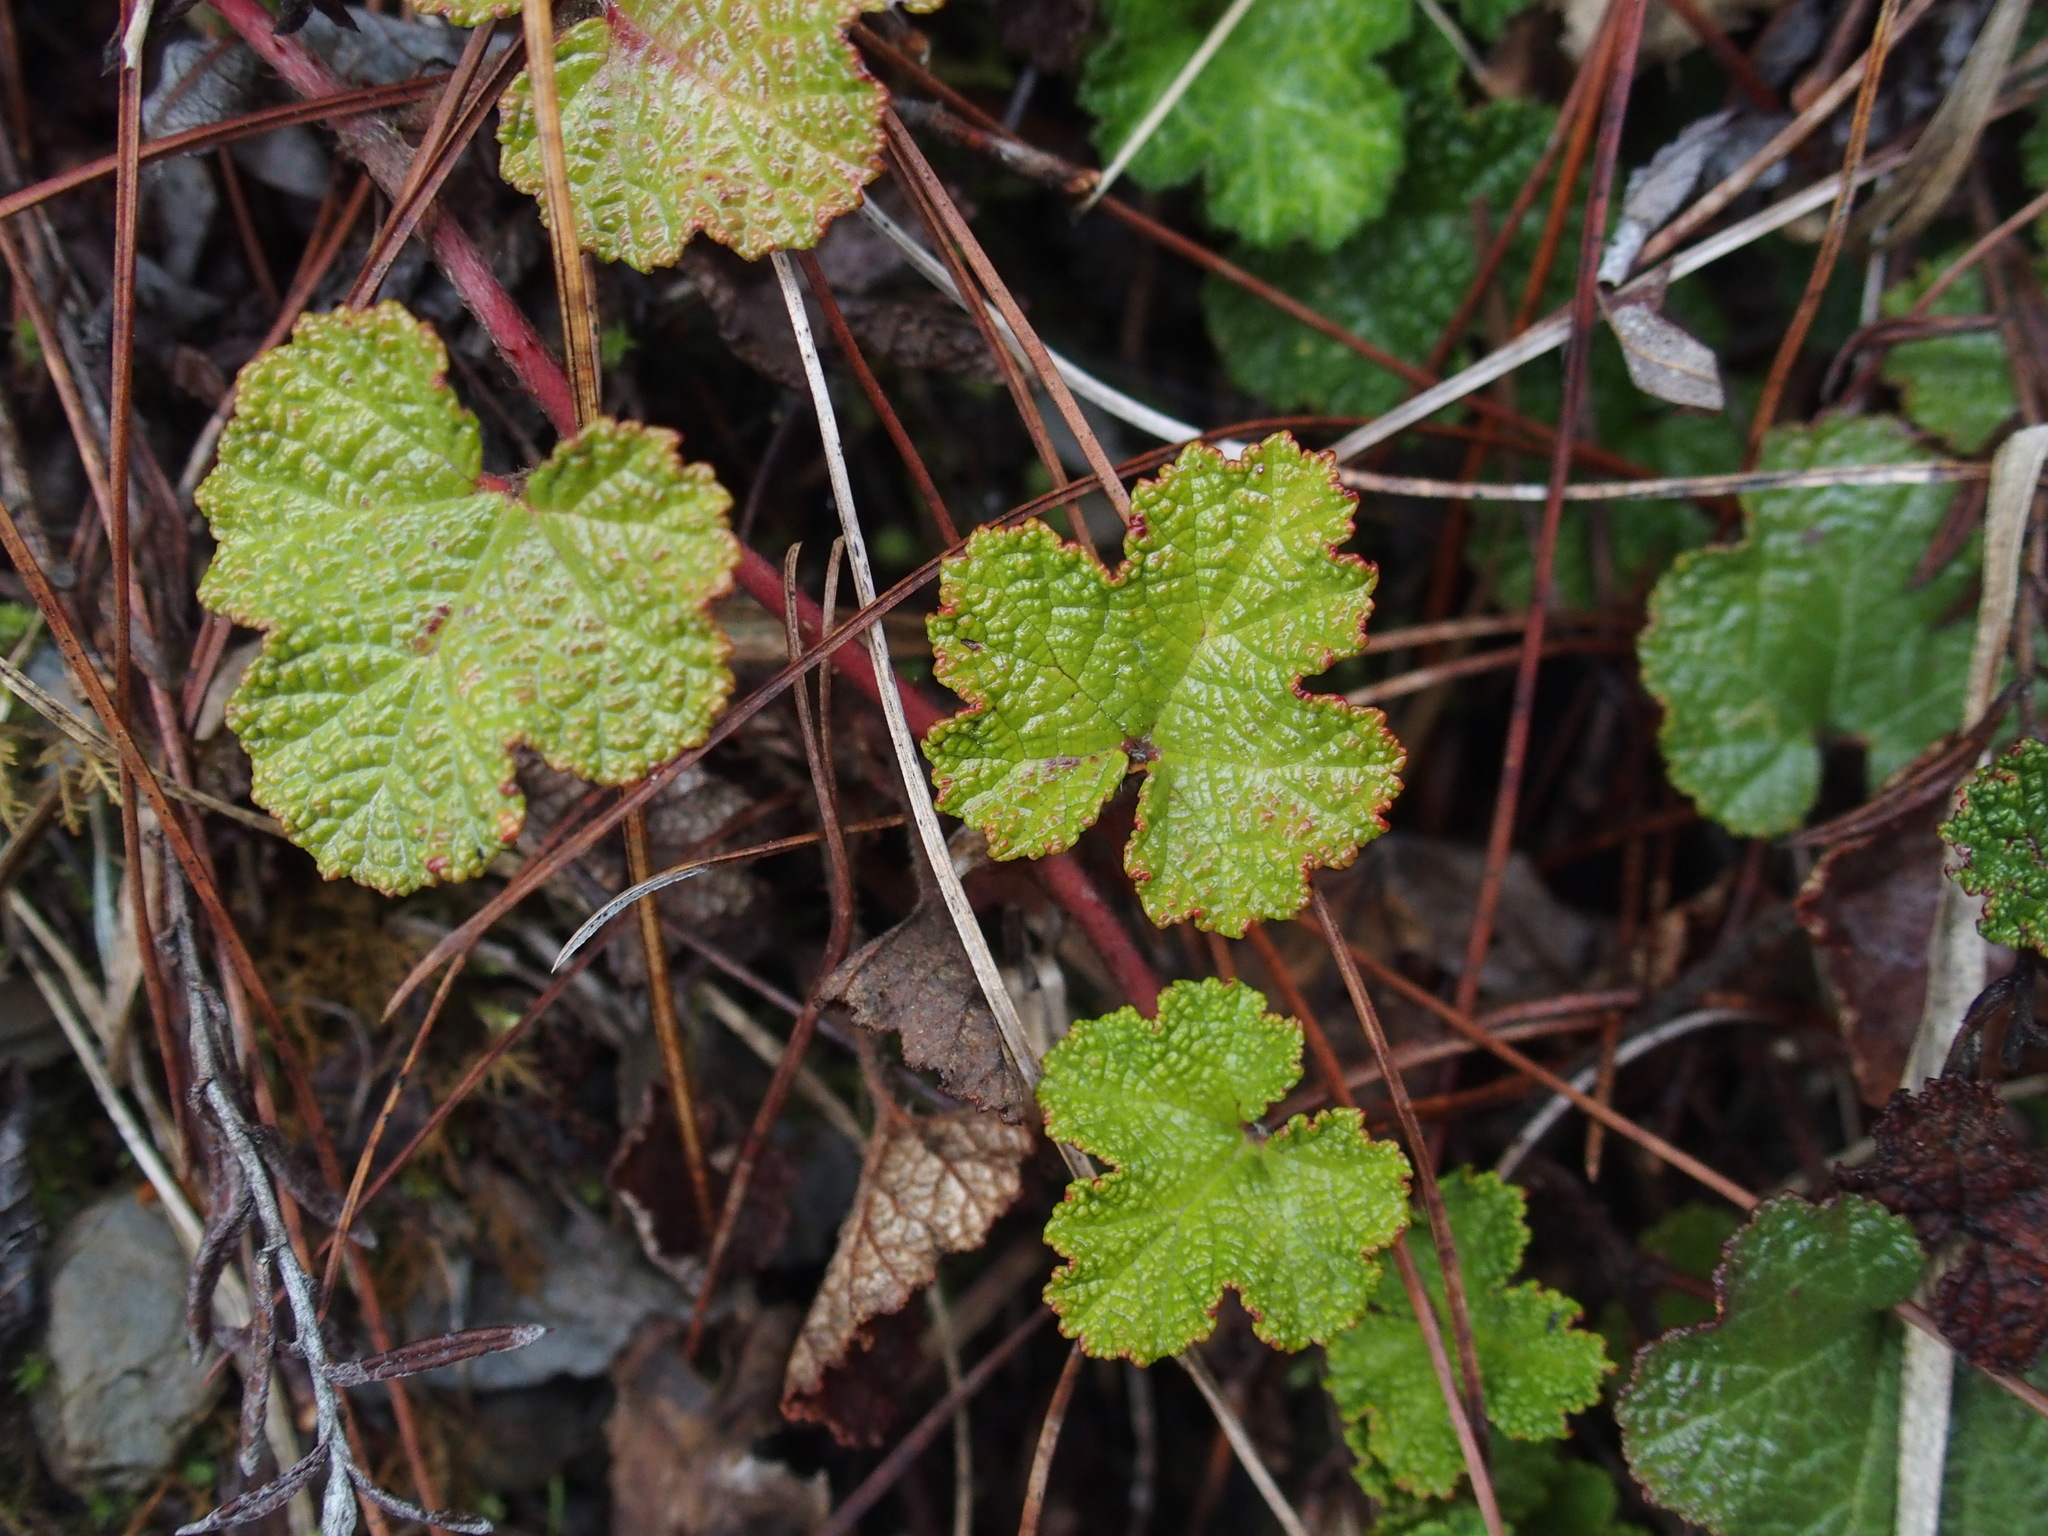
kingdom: Plantae
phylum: Tracheophyta
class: Magnoliopsida
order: Rosales
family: Rosaceae
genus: Rubus
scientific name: Rubus rolfei
